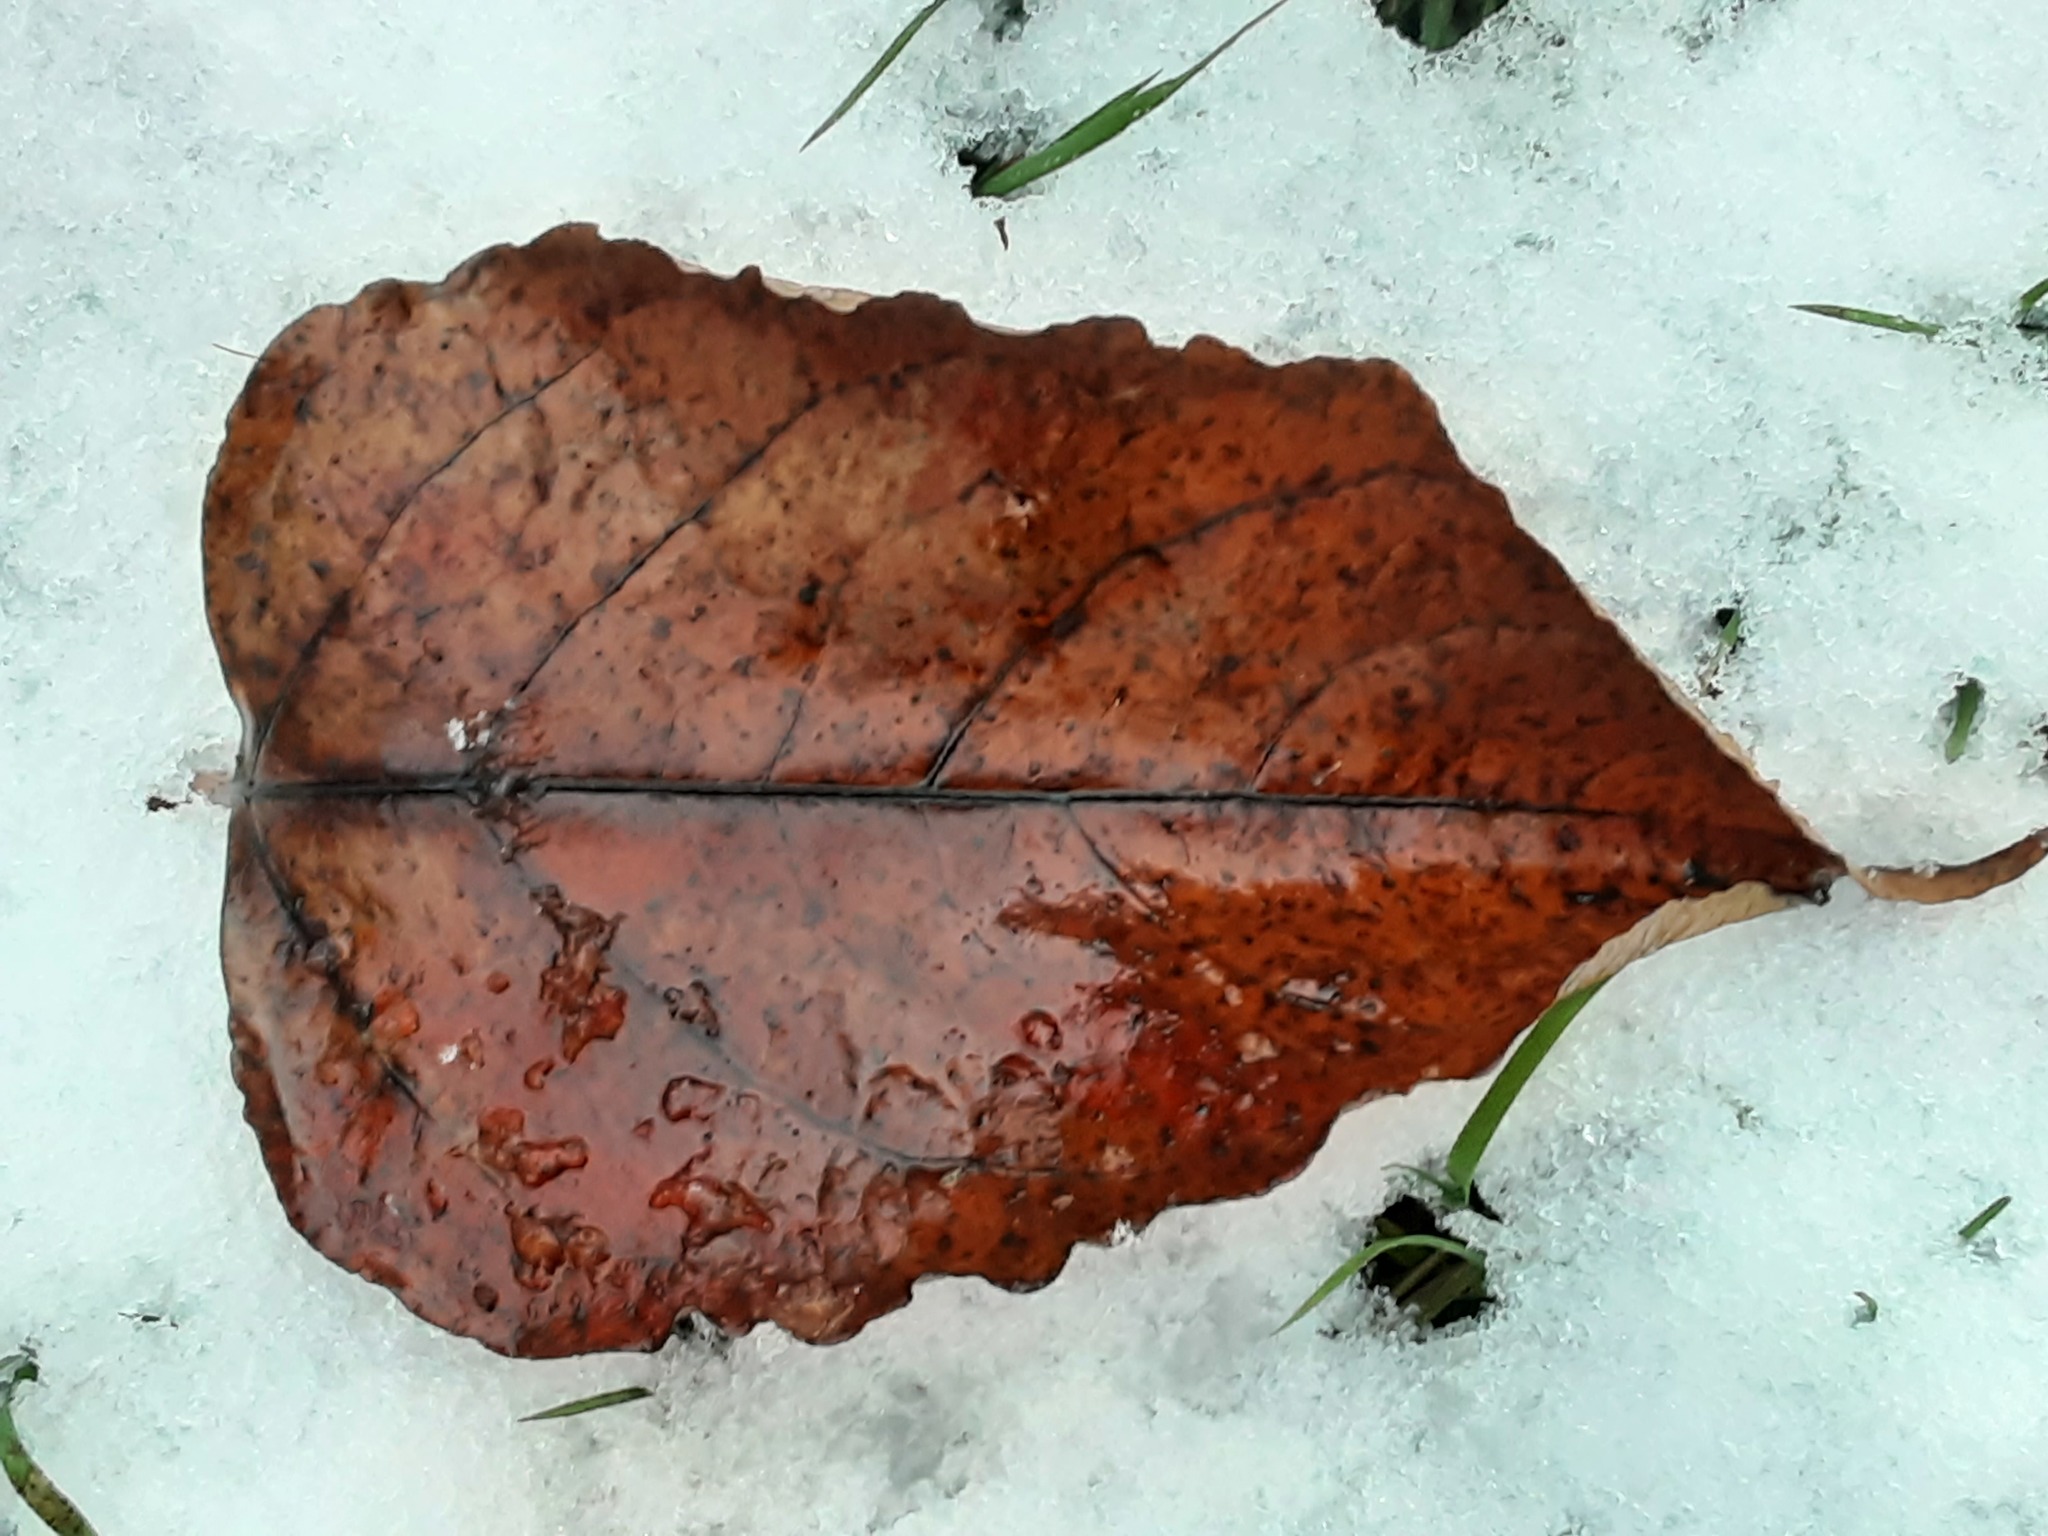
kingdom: Plantae
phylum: Tracheophyta
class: Magnoliopsida
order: Caryophyllales
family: Polygonaceae
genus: Reynoutria
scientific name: Reynoutria bohemica
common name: Bohemian knotweed
